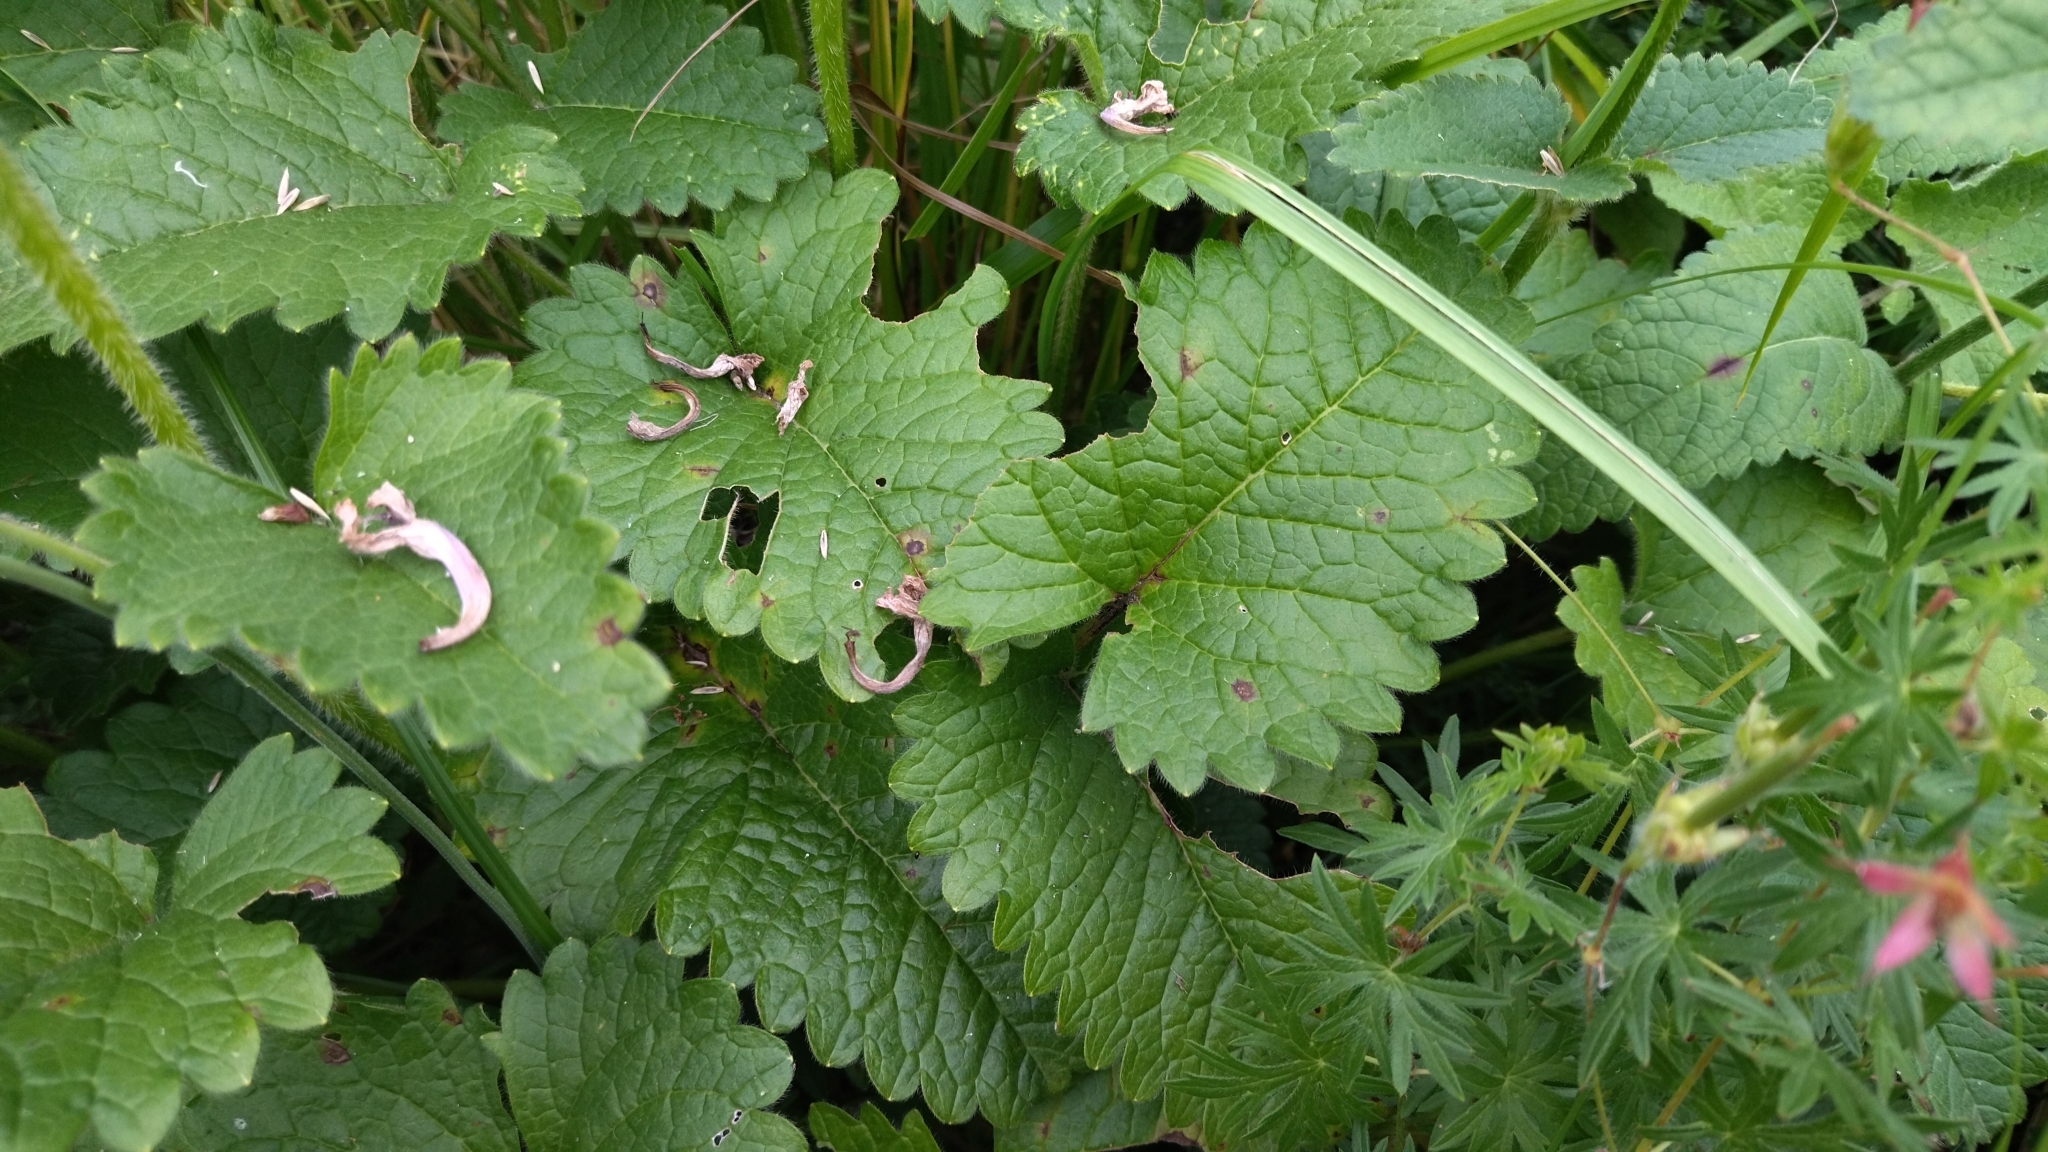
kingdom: Plantae
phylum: Tracheophyta
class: Magnoliopsida
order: Lamiales
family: Lamiaceae
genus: Betonica
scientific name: Betonica macrantha
